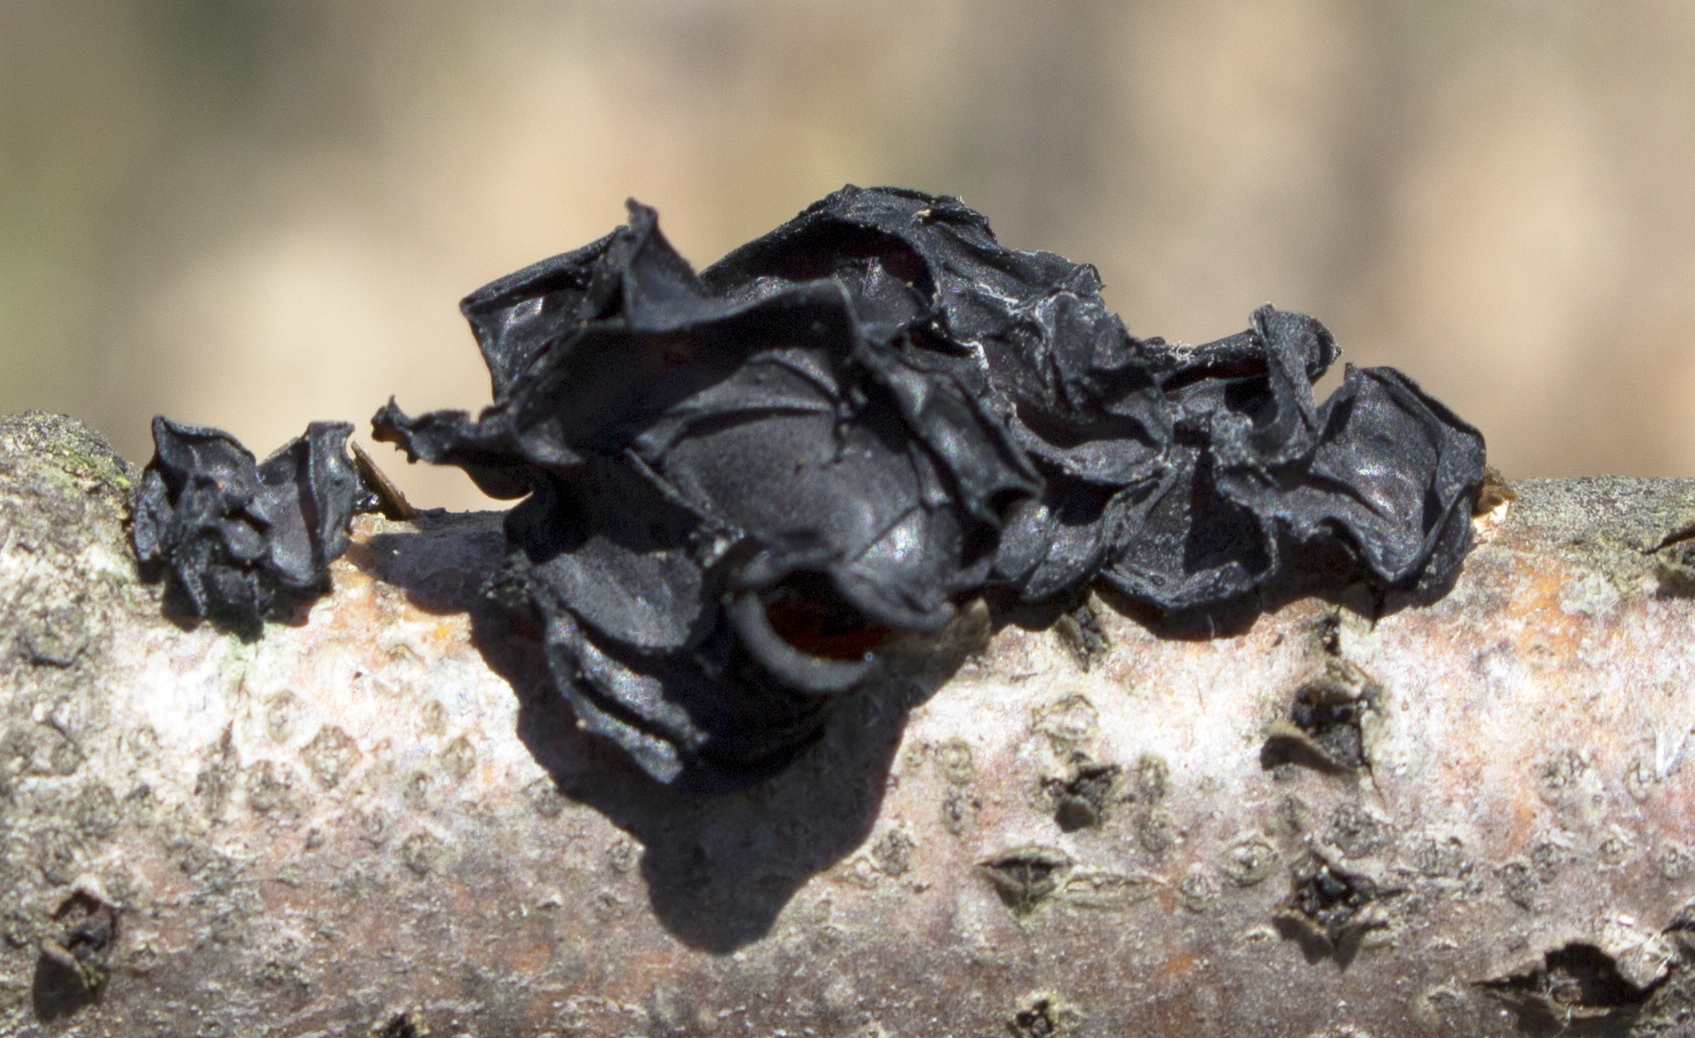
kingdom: Fungi
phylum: Basidiomycota
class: Agaricomycetes
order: Auriculariales
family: Auriculariaceae
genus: Exidia
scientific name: Exidia
